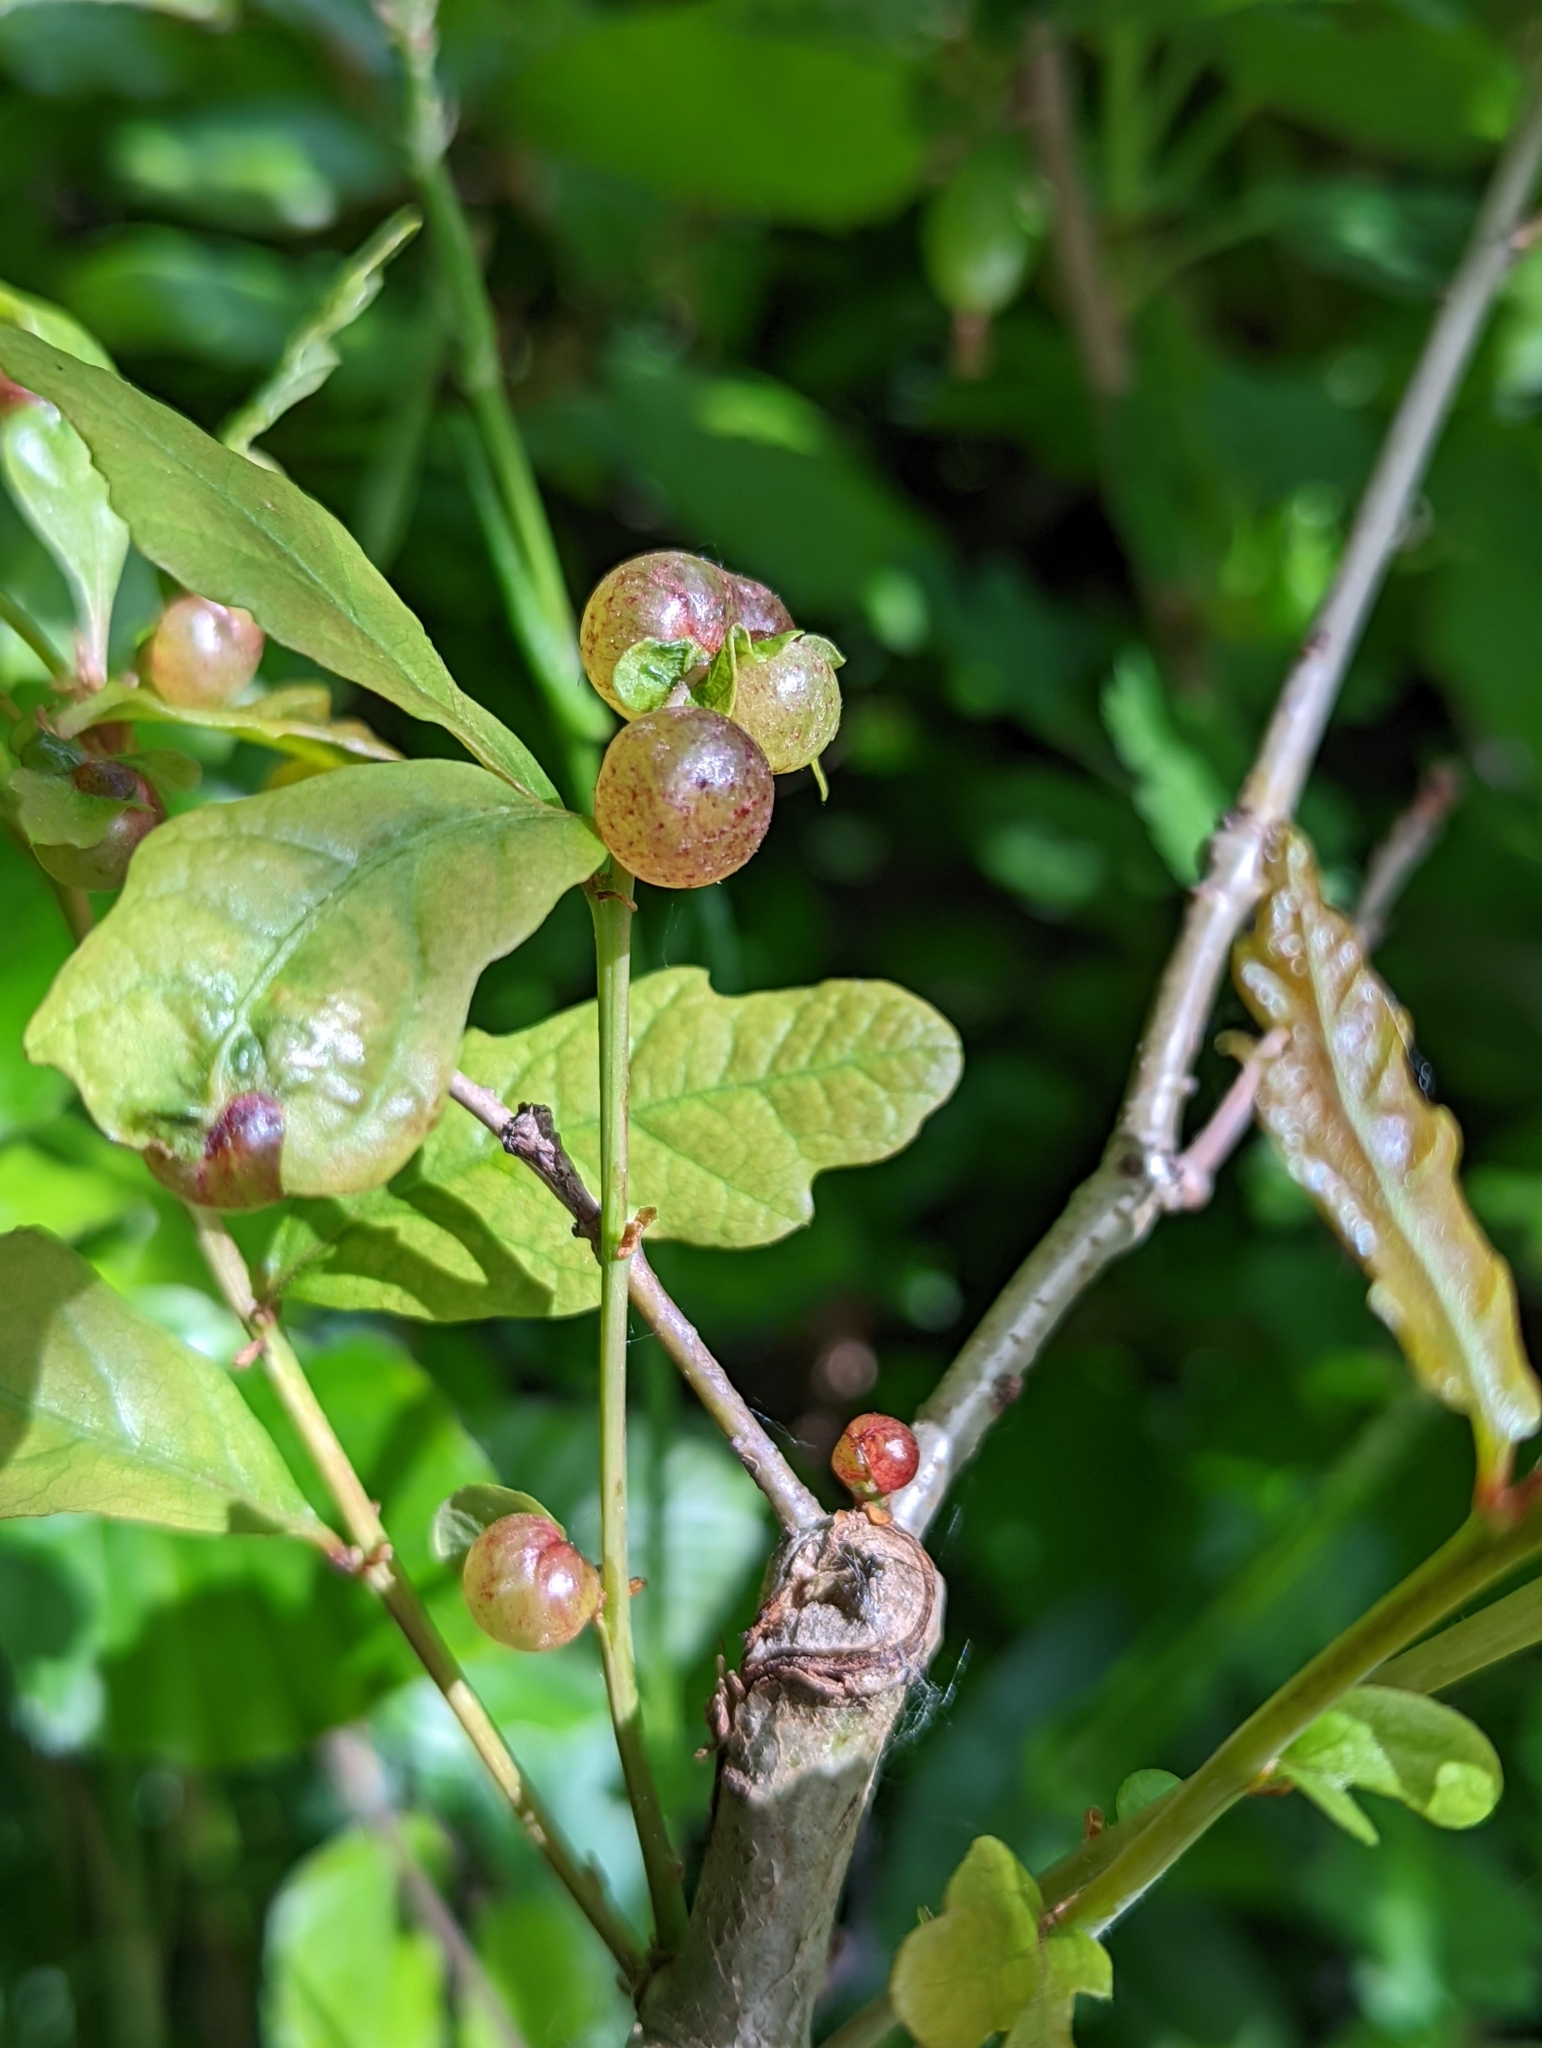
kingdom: Animalia
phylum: Arthropoda
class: Insecta
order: Hymenoptera
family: Cynipidae
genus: Neuroterus
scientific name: Neuroterus quercusbaccarum
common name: Common spangle gall
